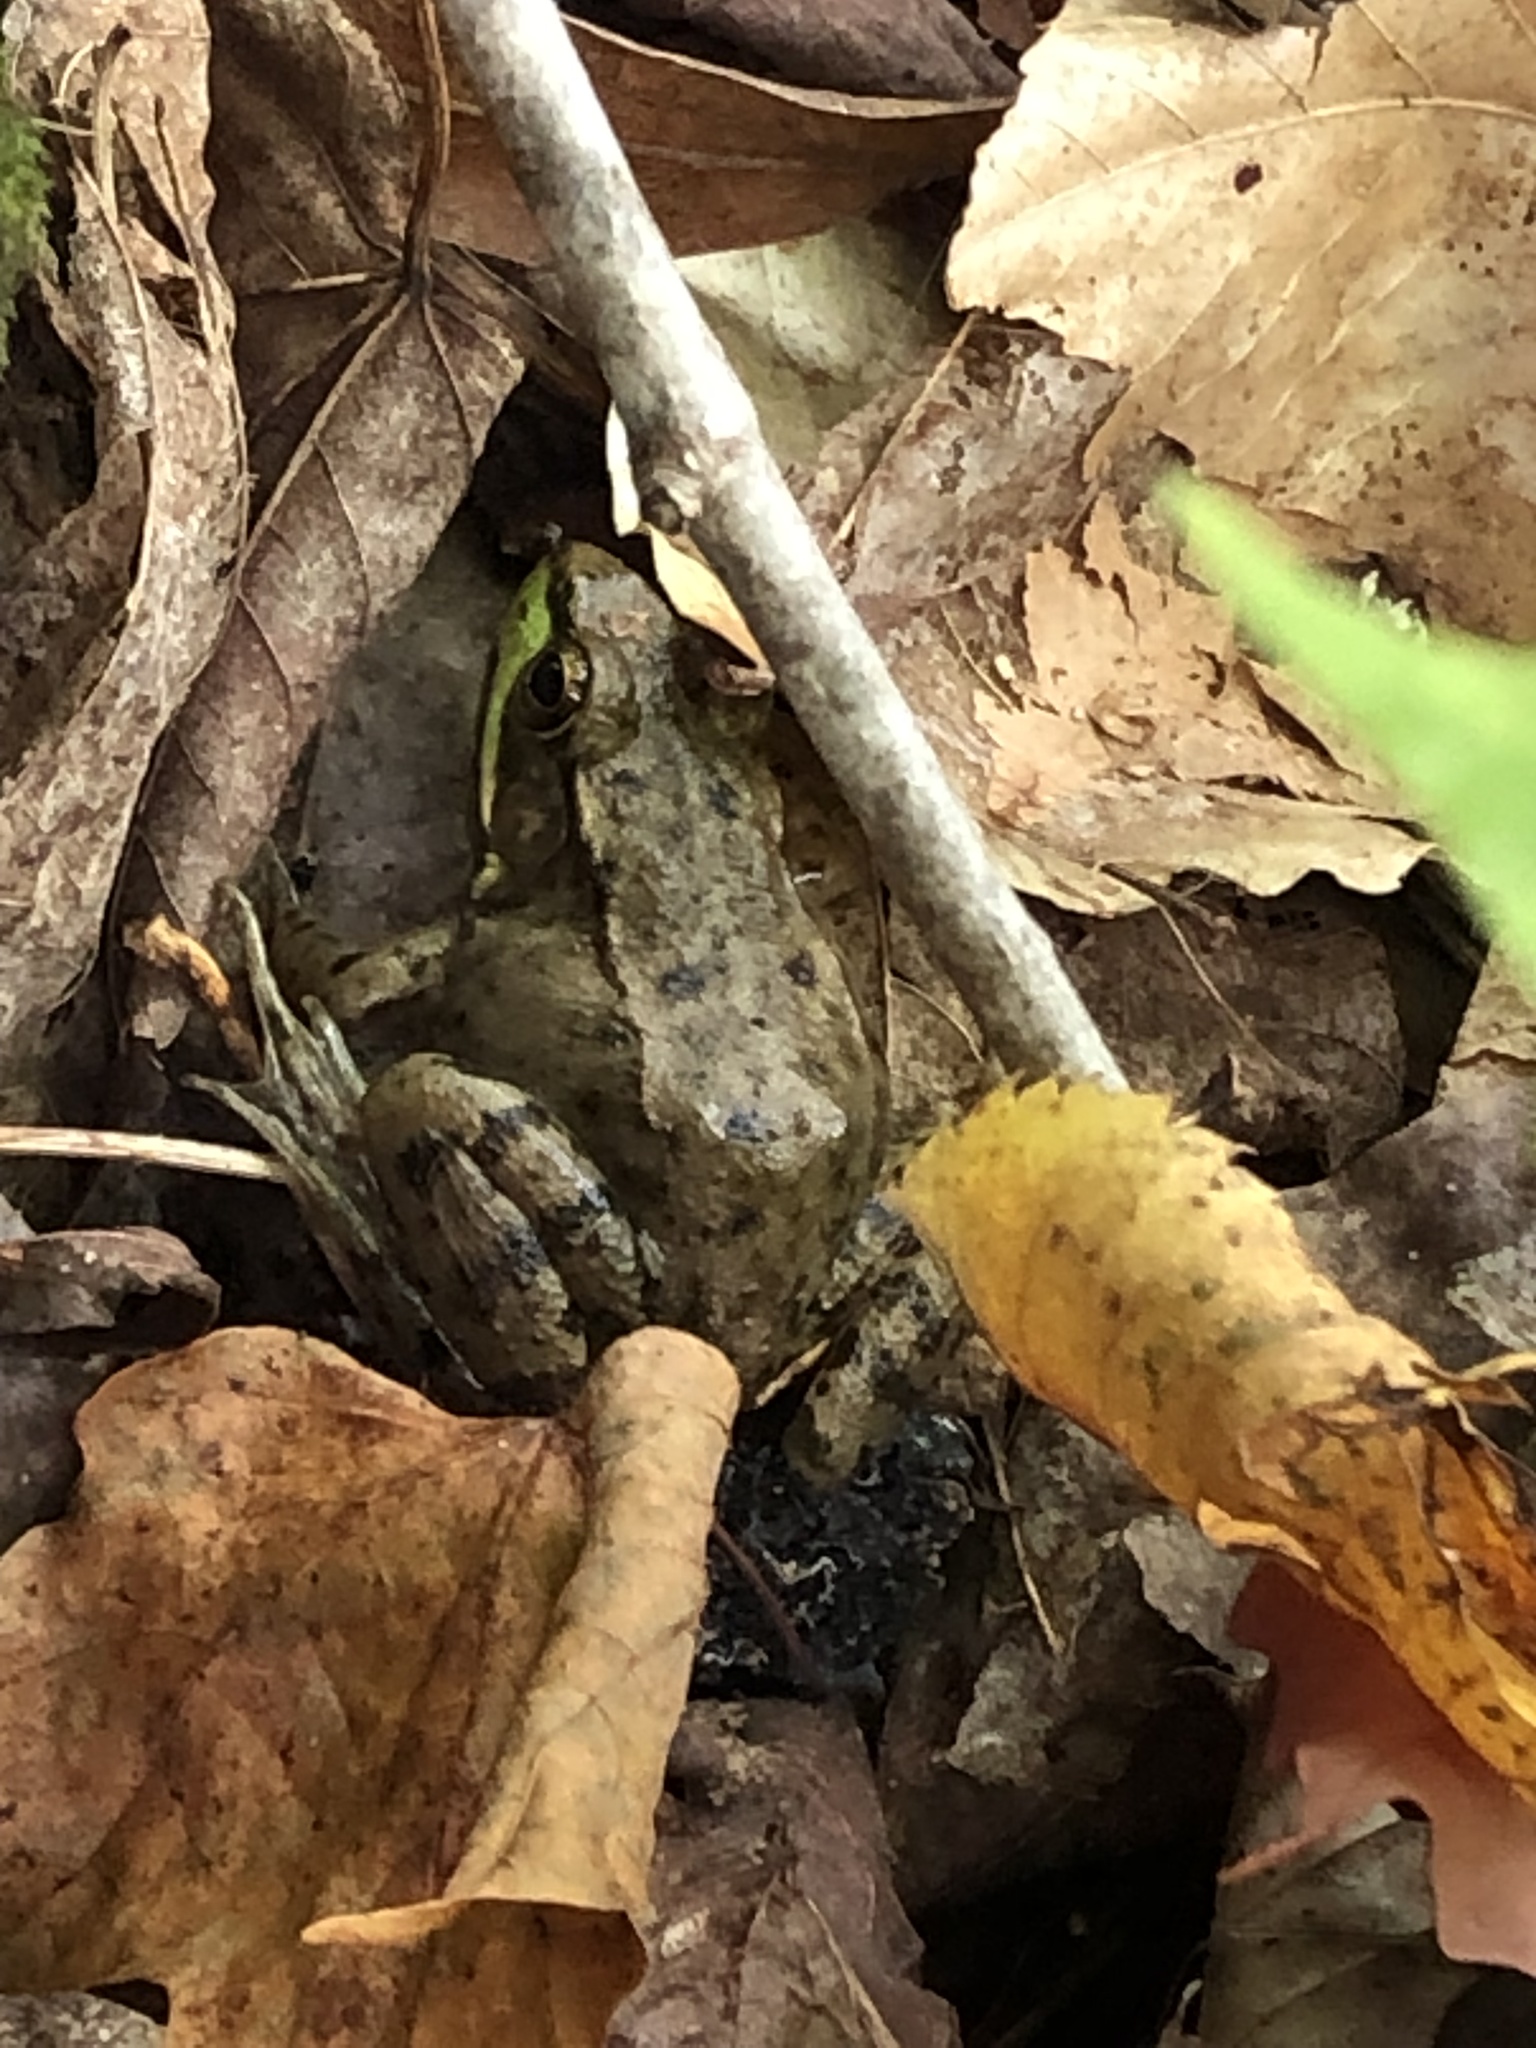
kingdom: Animalia
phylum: Chordata
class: Amphibia
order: Anura
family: Ranidae
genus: Lithobates
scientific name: Lithobates clamitans
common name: Green frog
